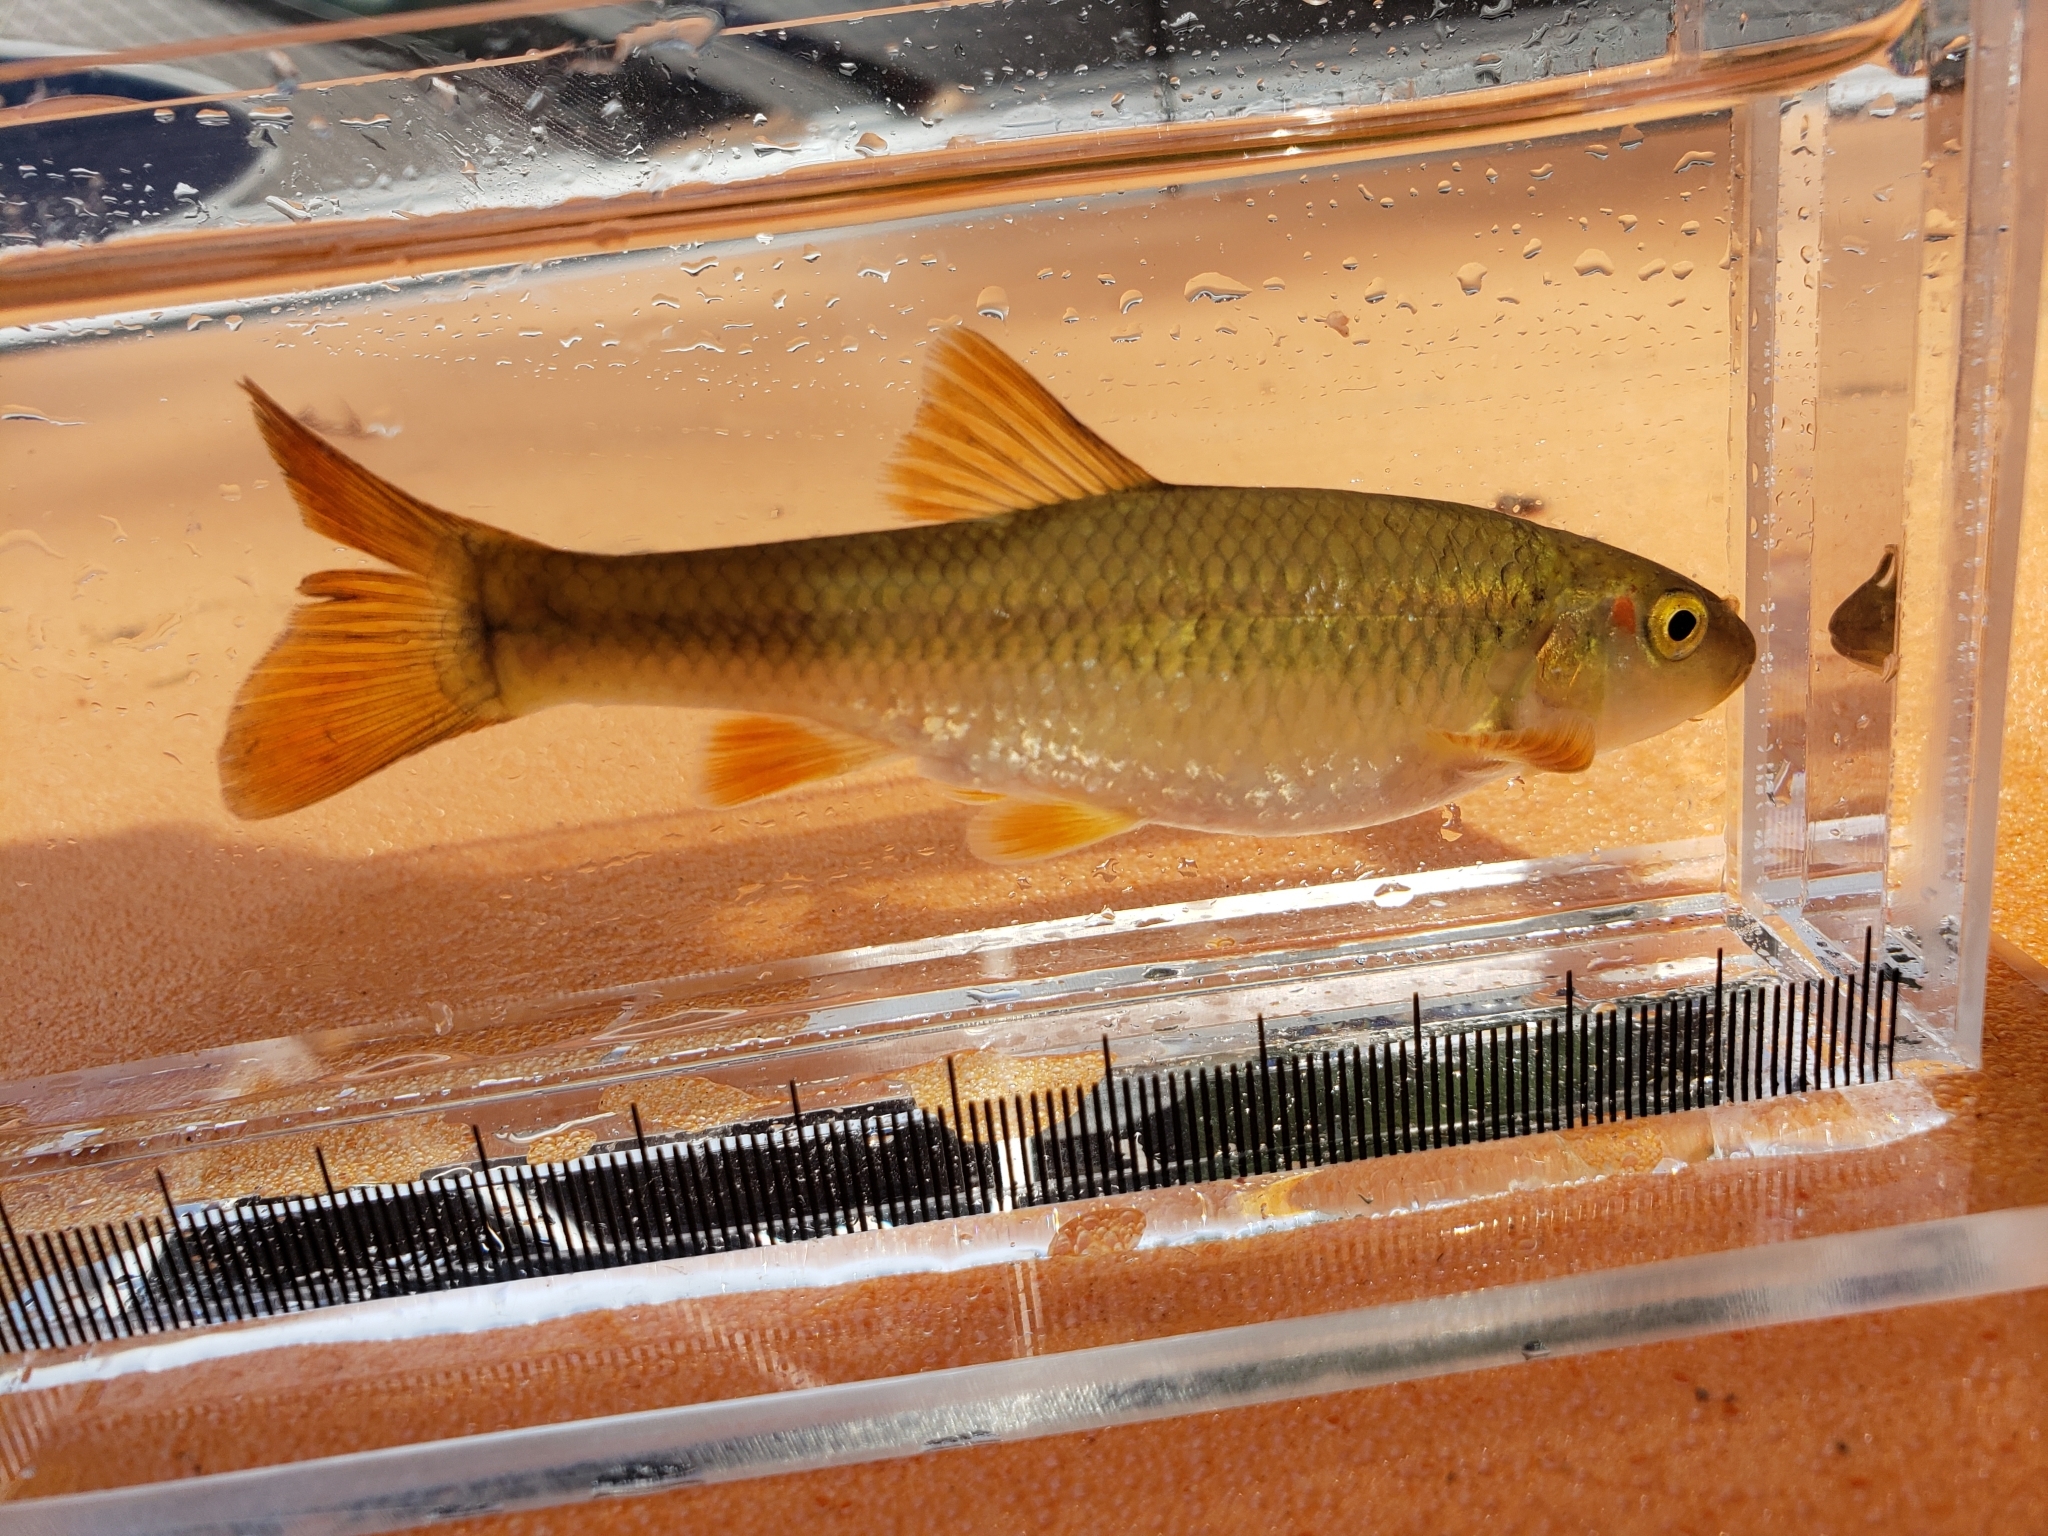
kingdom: Animalia
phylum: Chordata
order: Cypriniformes
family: Cyprinidae
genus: Nocomis
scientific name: Nocomis biguttatus
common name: Hornyhead chub
